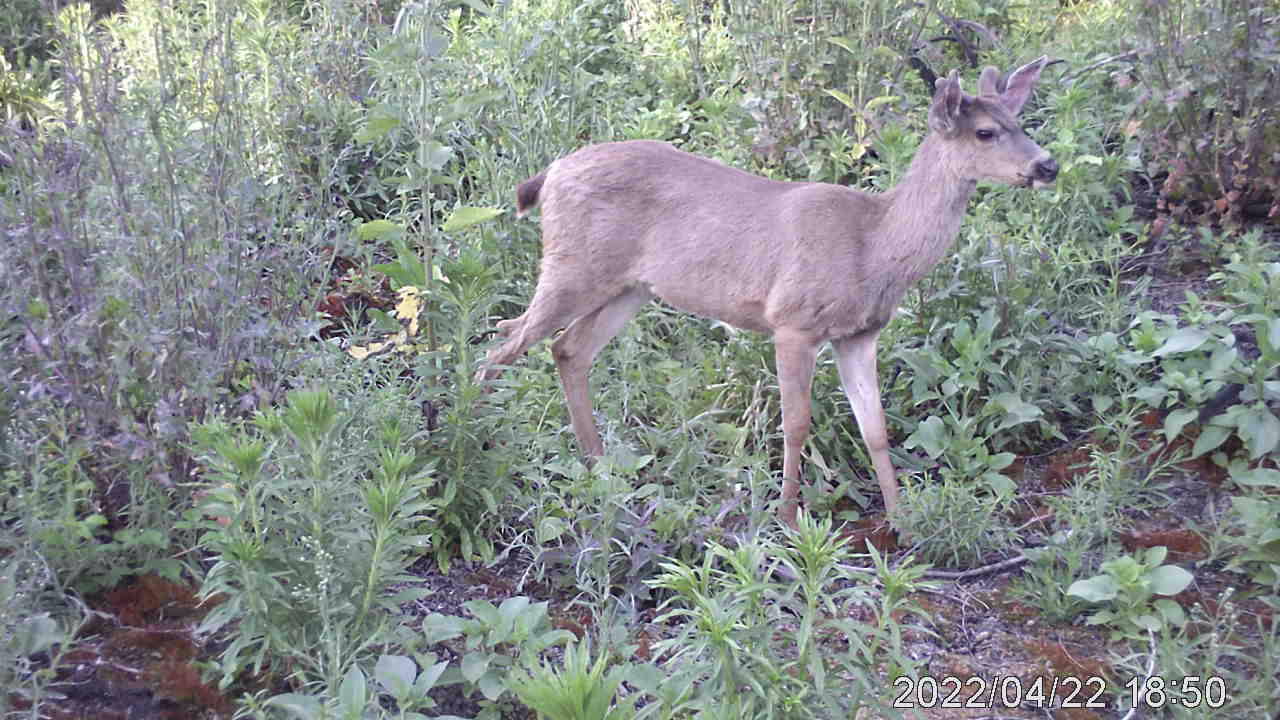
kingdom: Animalia
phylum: Chordata
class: Mammalia
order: Artiodactyla
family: Cervidae
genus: Odocoileus
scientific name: Odocoileus hemionus
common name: Mule deer
